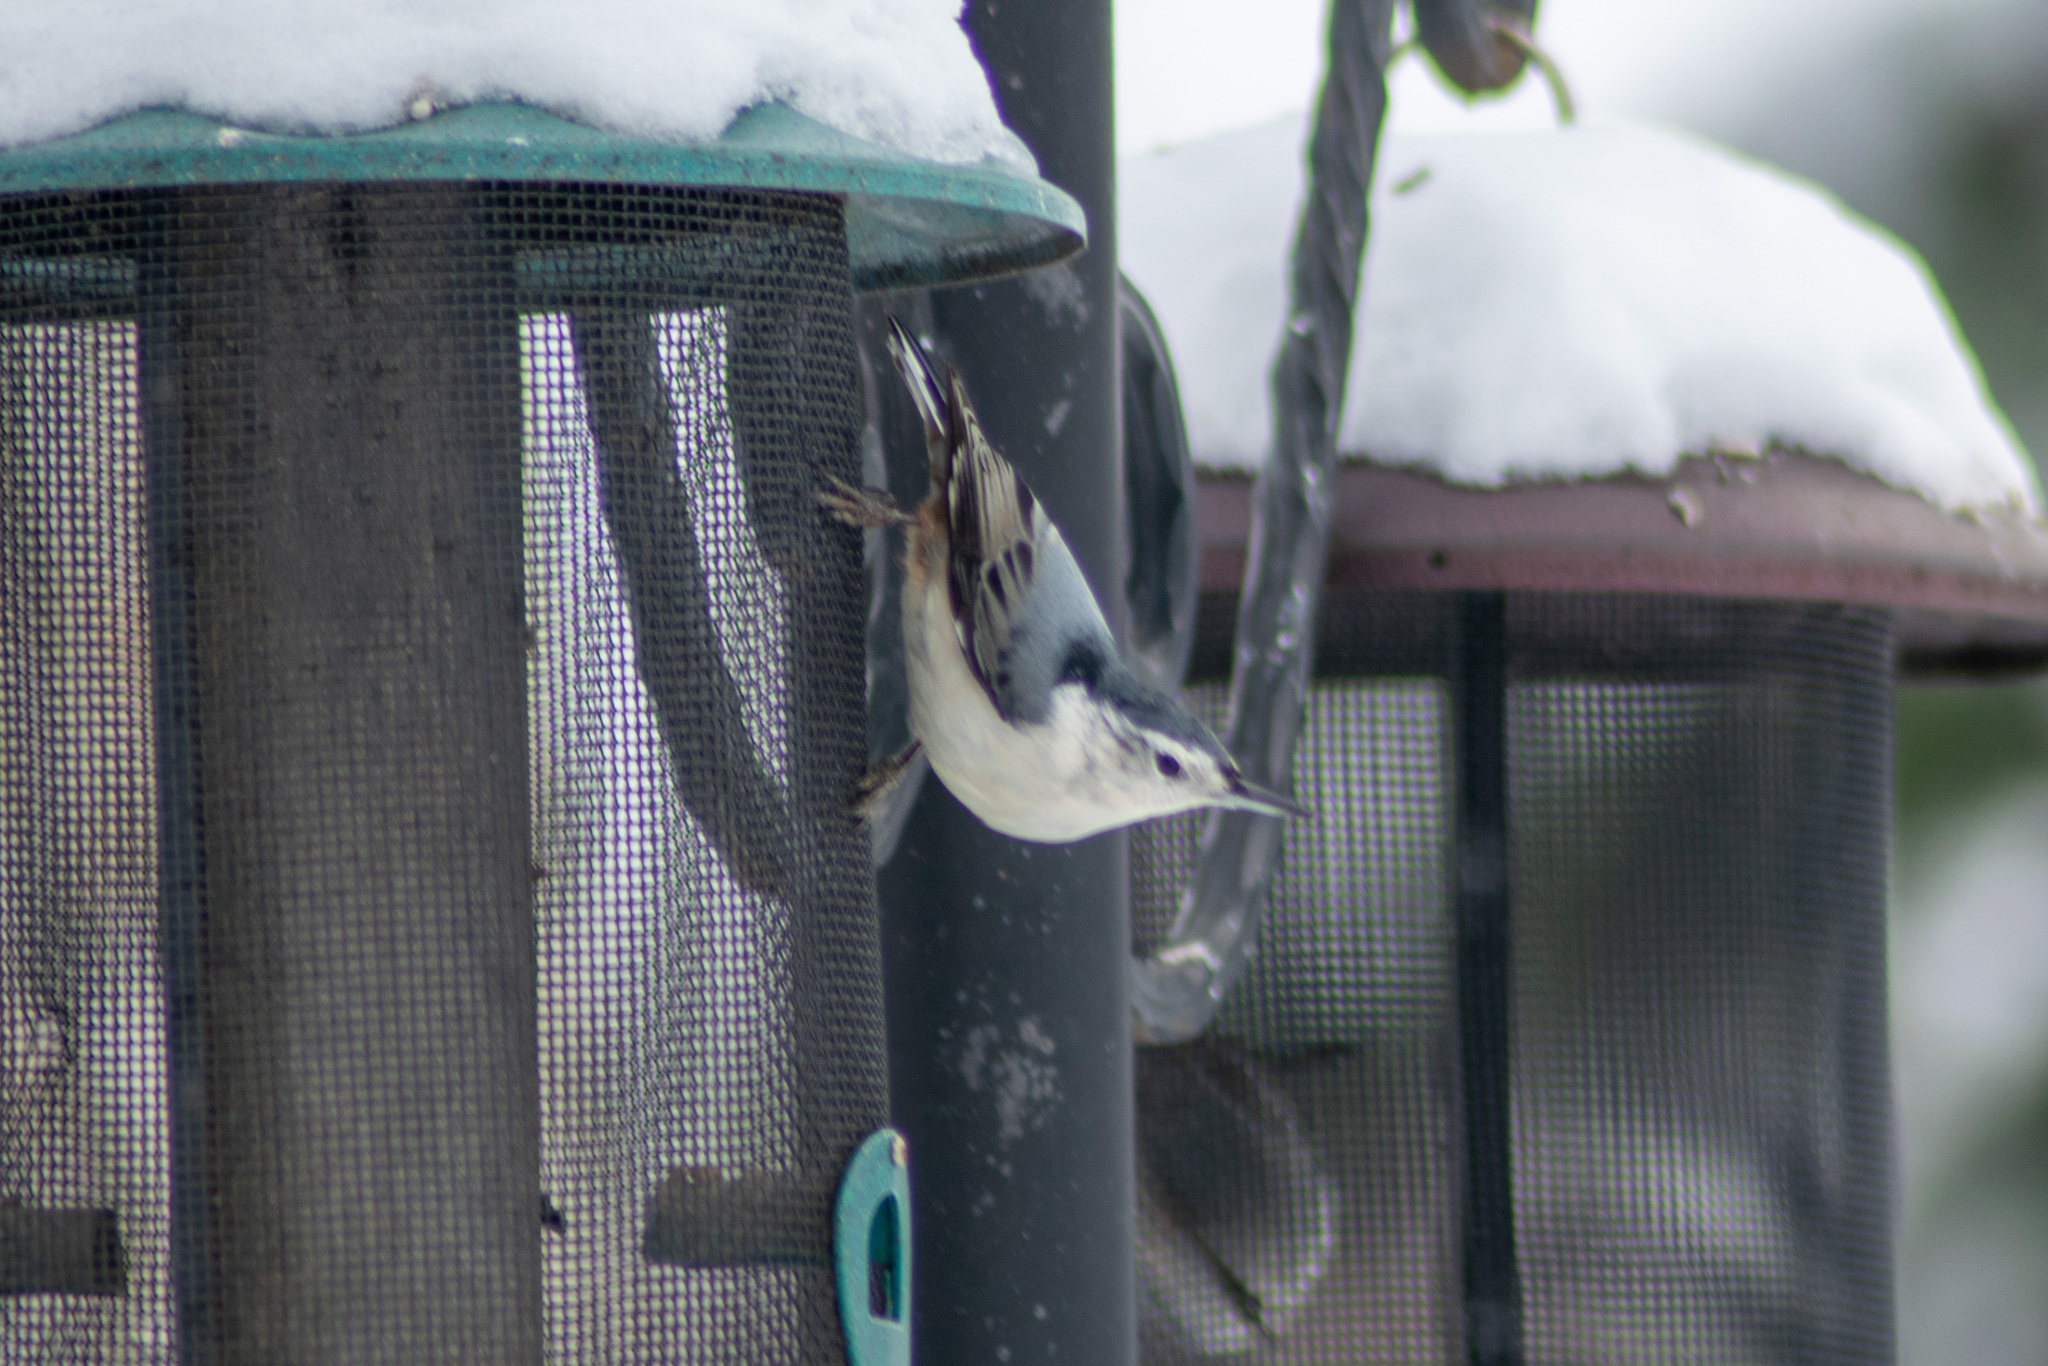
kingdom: Animalia
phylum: Chordata
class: Aves
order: Passeriformes
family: Sittidae
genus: Sitta
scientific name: Sitta carolinensis
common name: White-breasted nuthatch
